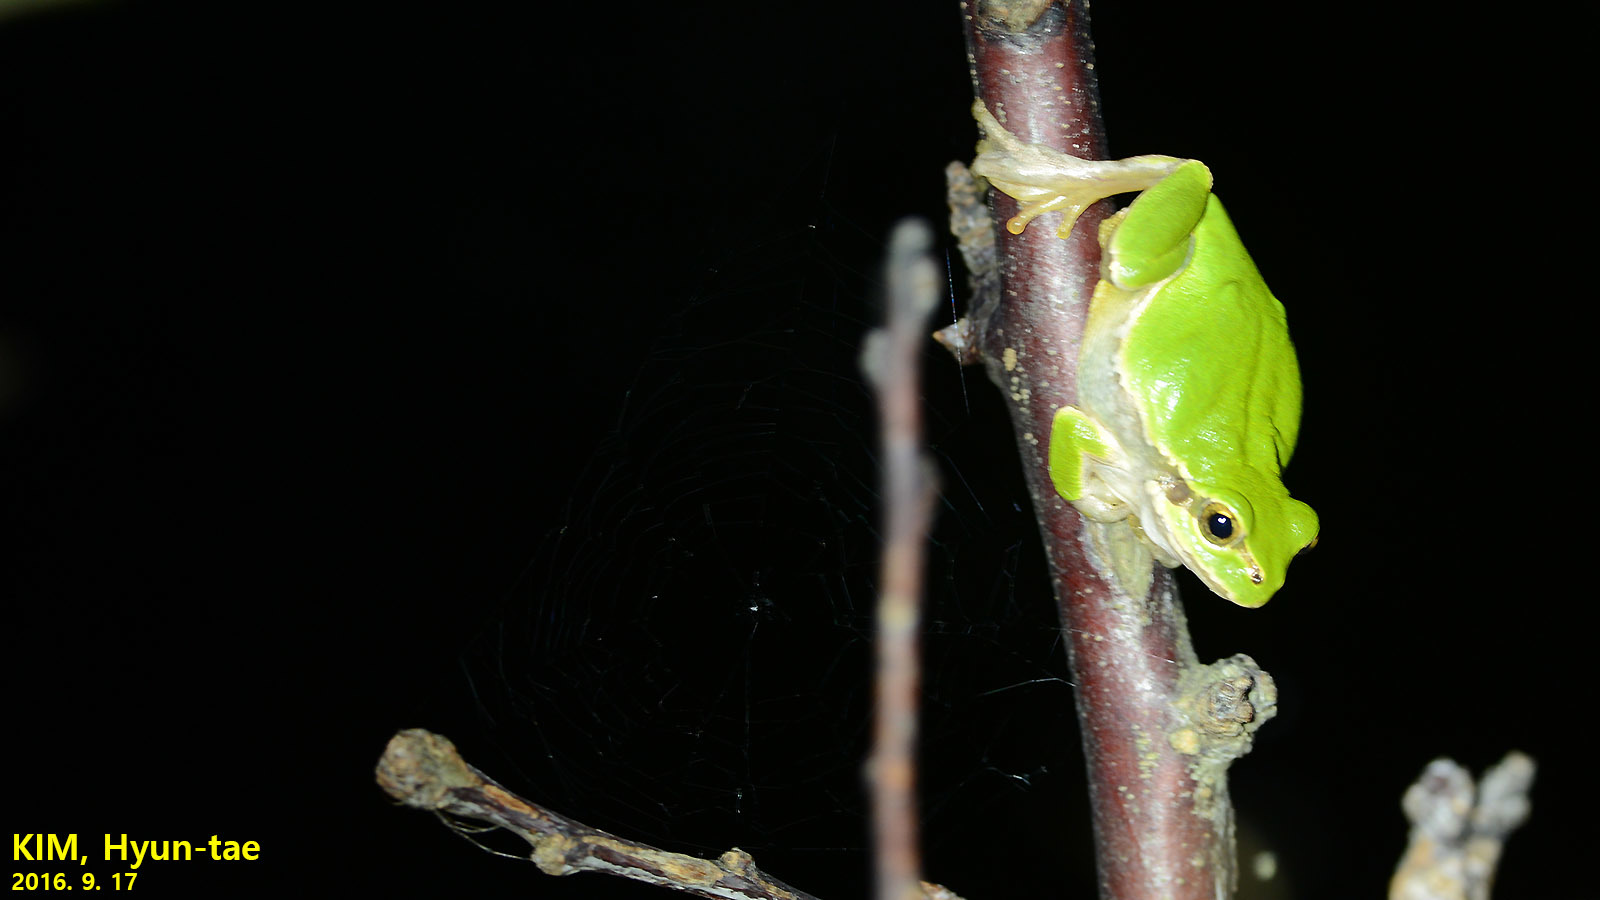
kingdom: Animalia
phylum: Chordata
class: Amphibia
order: Anura
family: Hylidae
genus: Dryophytes
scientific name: Dryophytes japonicus
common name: Japanese treefrog
